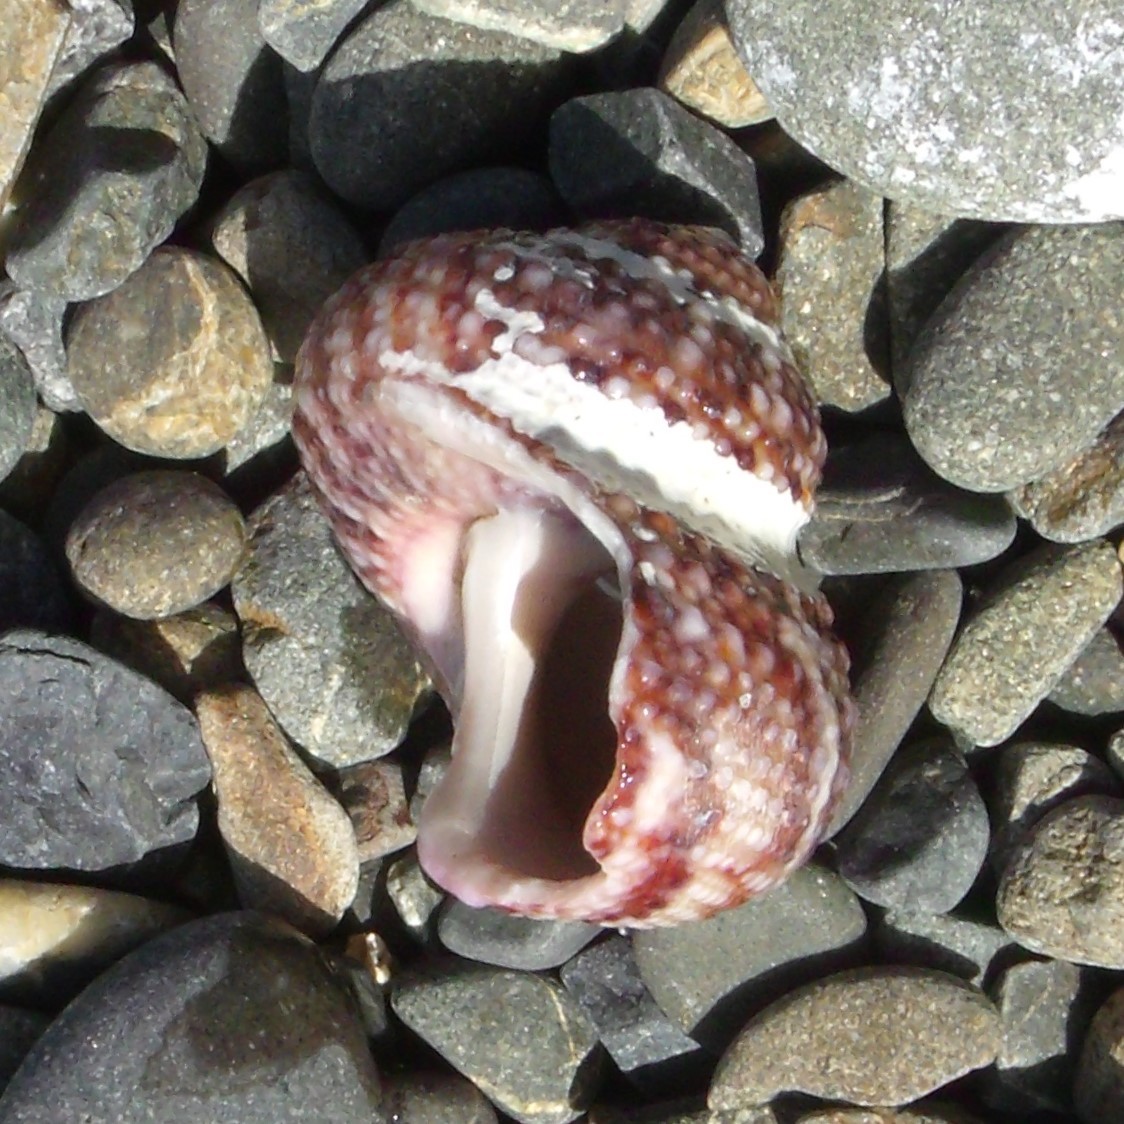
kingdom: Animalia
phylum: Mollusca
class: Gastropoda
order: Trochida
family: Turbinidae
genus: Modelia
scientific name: Modelia granosa
